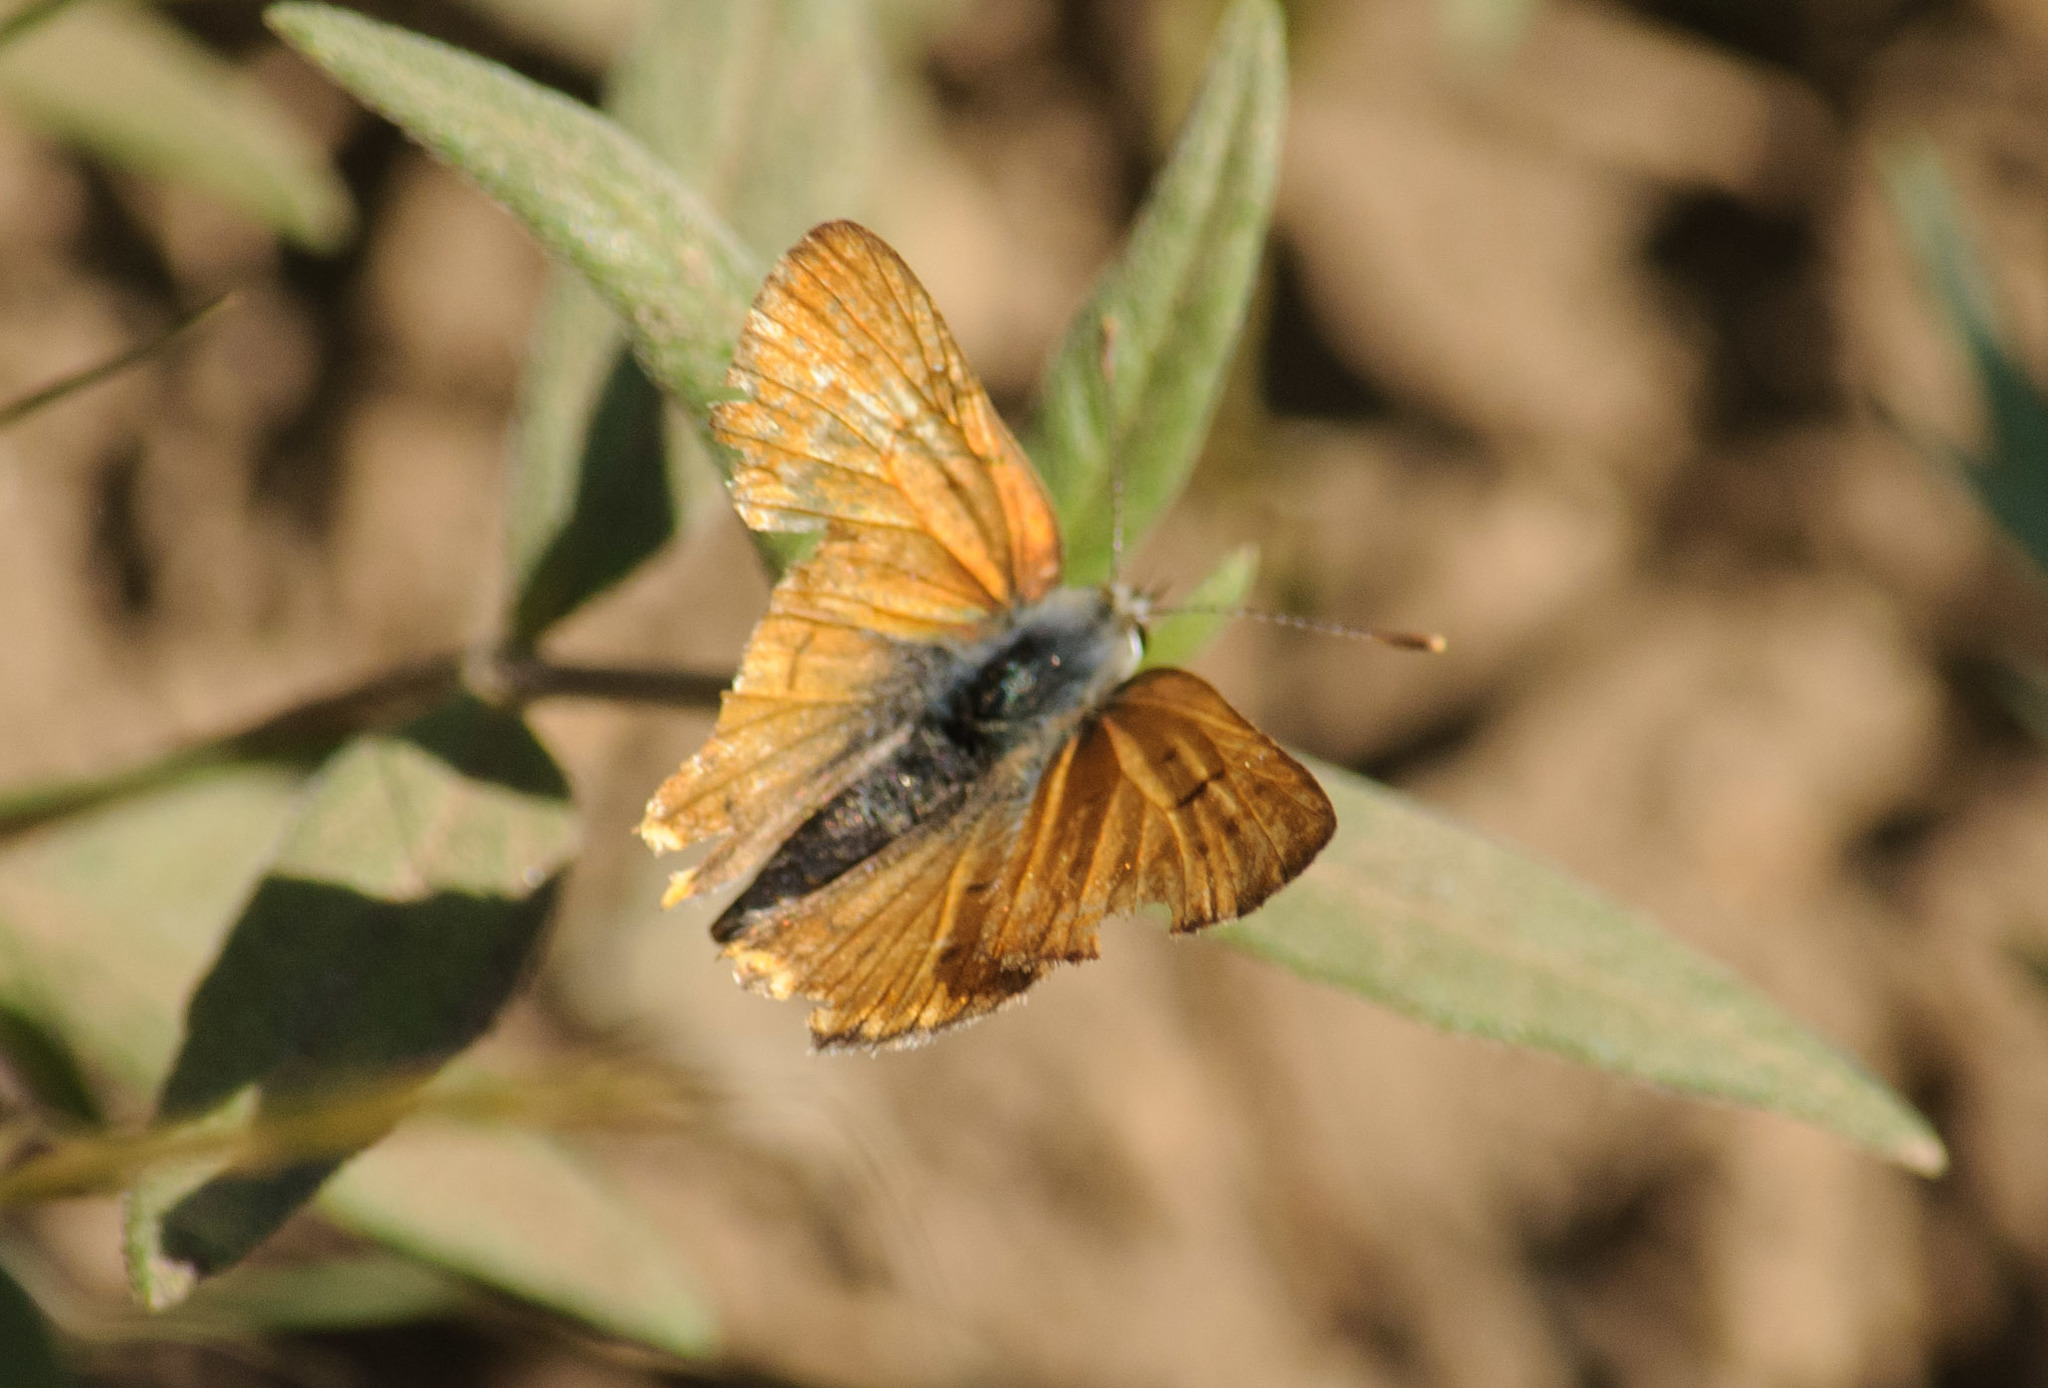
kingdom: Animalia
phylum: Arthropoda
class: Insecta
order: Lepidoptera
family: Lycaenidae
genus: Tharsalea
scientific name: Tharsalea rubidus
